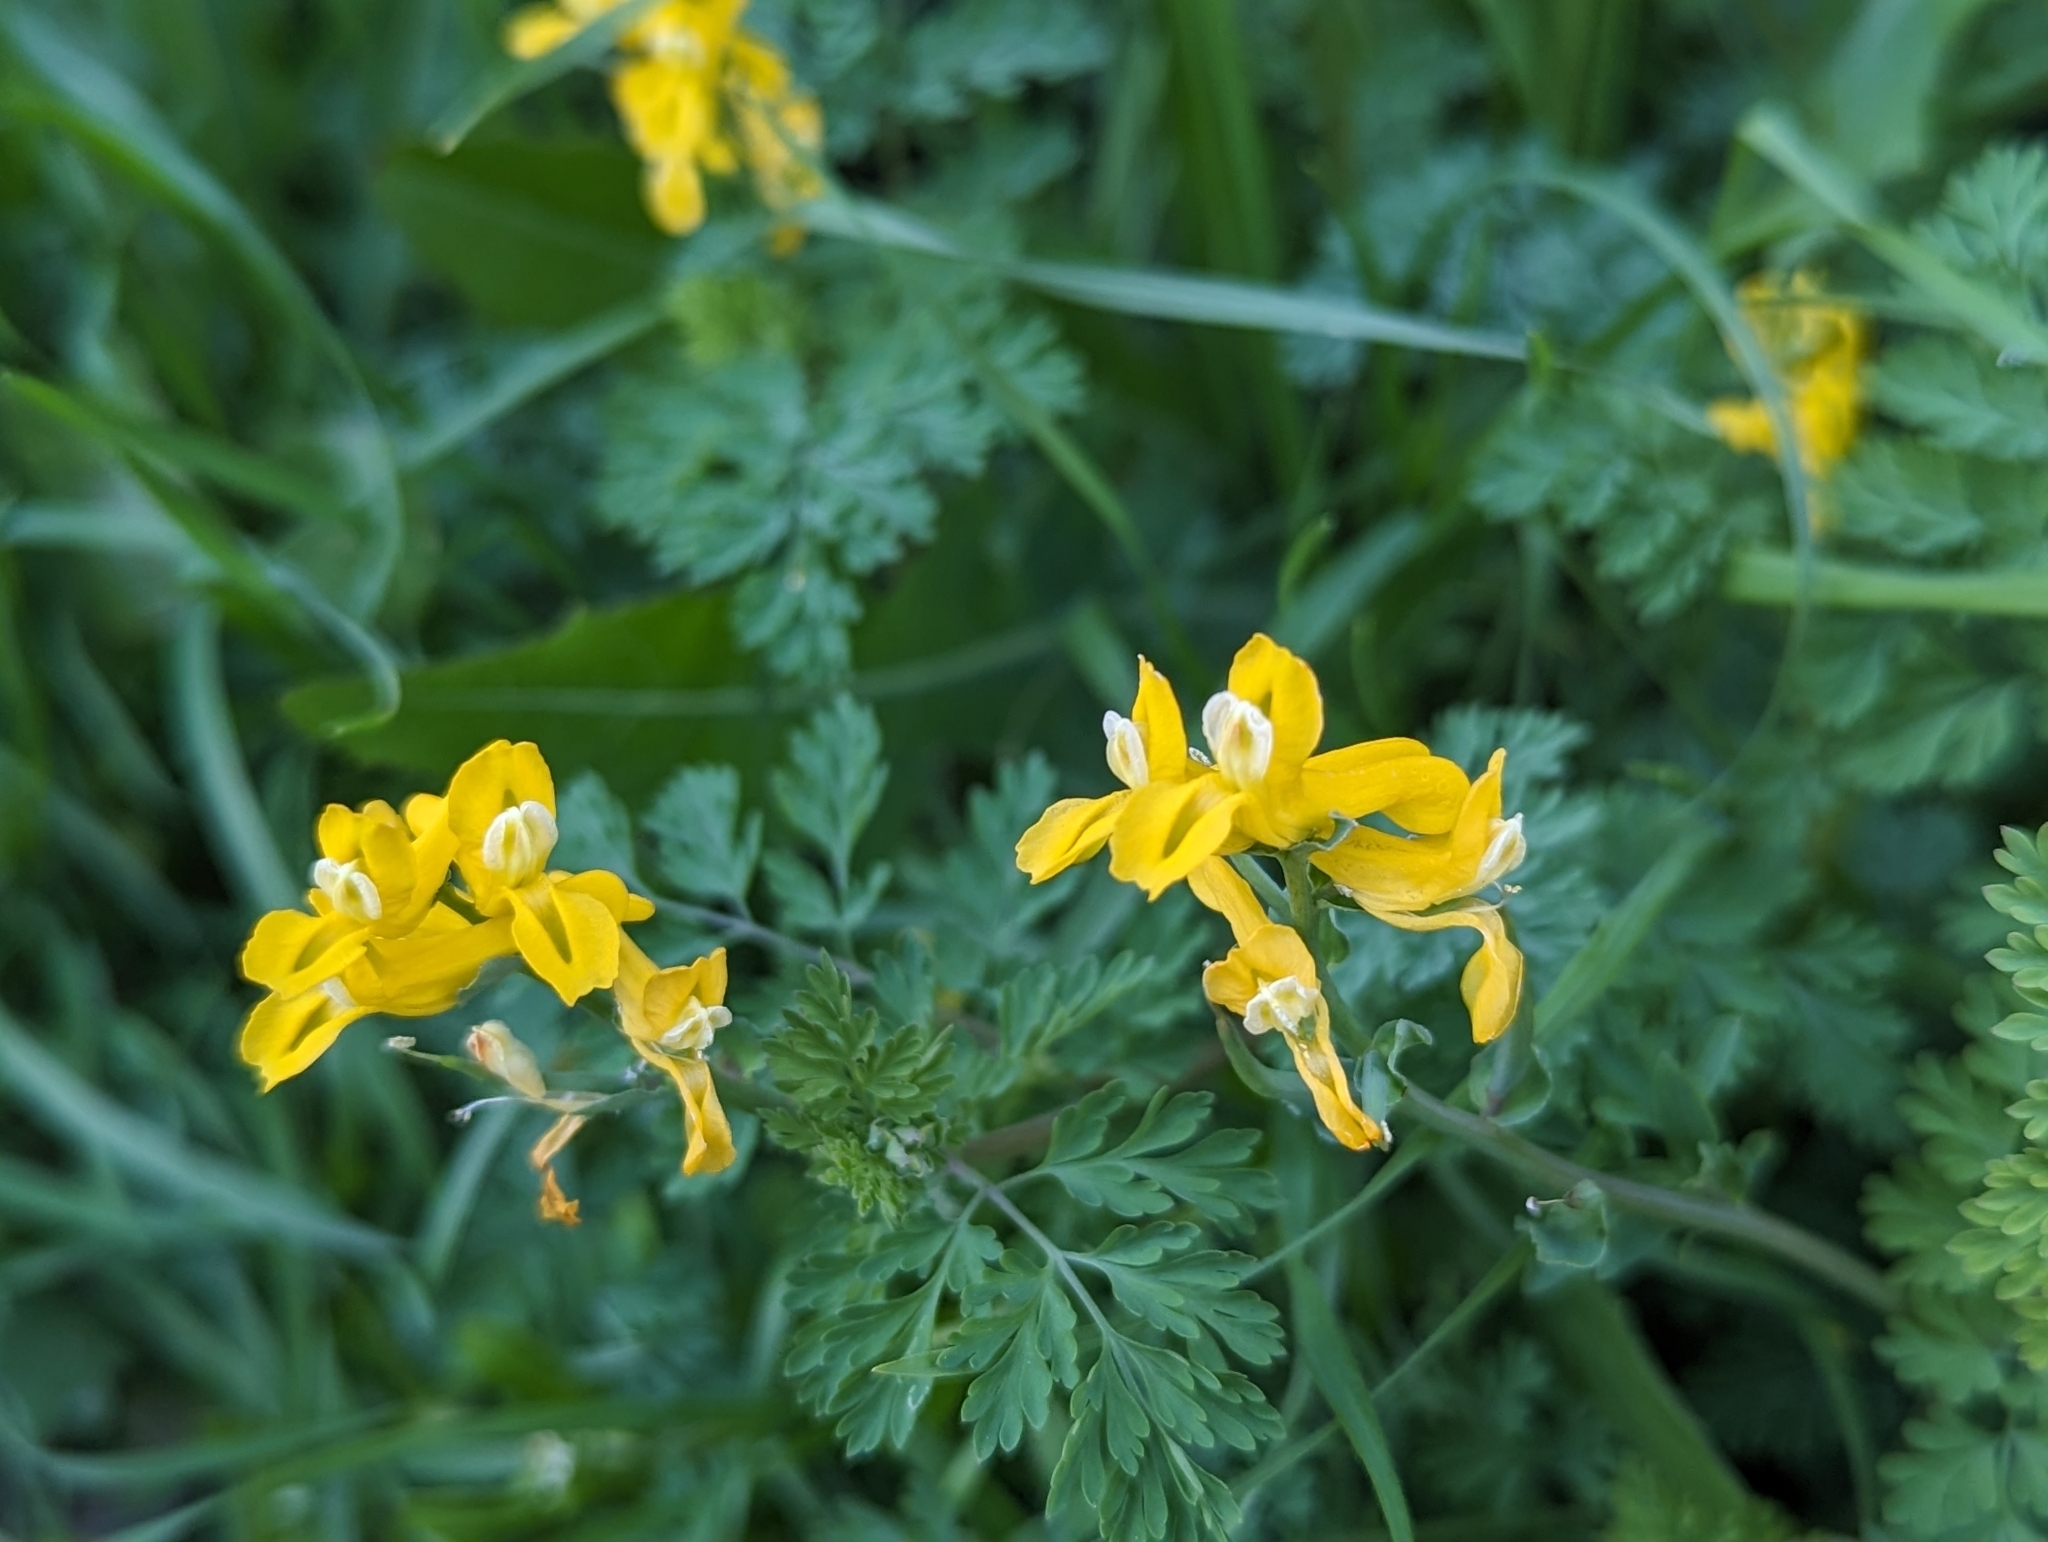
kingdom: Plantae
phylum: Tracheophyta
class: Magnoliopsida
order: Ranunculales
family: Papaveraceae
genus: Corydalis
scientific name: Corydalis aurea
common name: Golden corydalis
